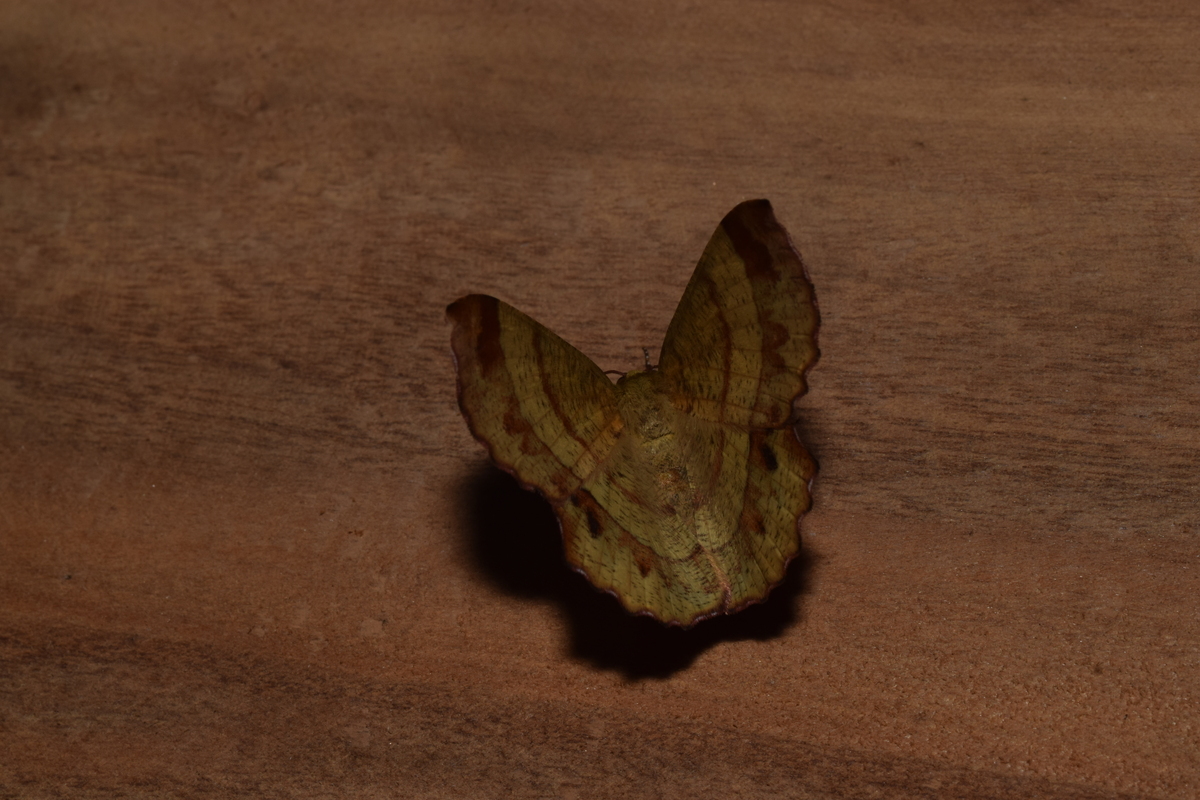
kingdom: Animalia
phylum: Arthropoda
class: Insecta
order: Lepidoptera
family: Geometridae
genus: Hyperythra
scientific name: Hyperythra lutea
